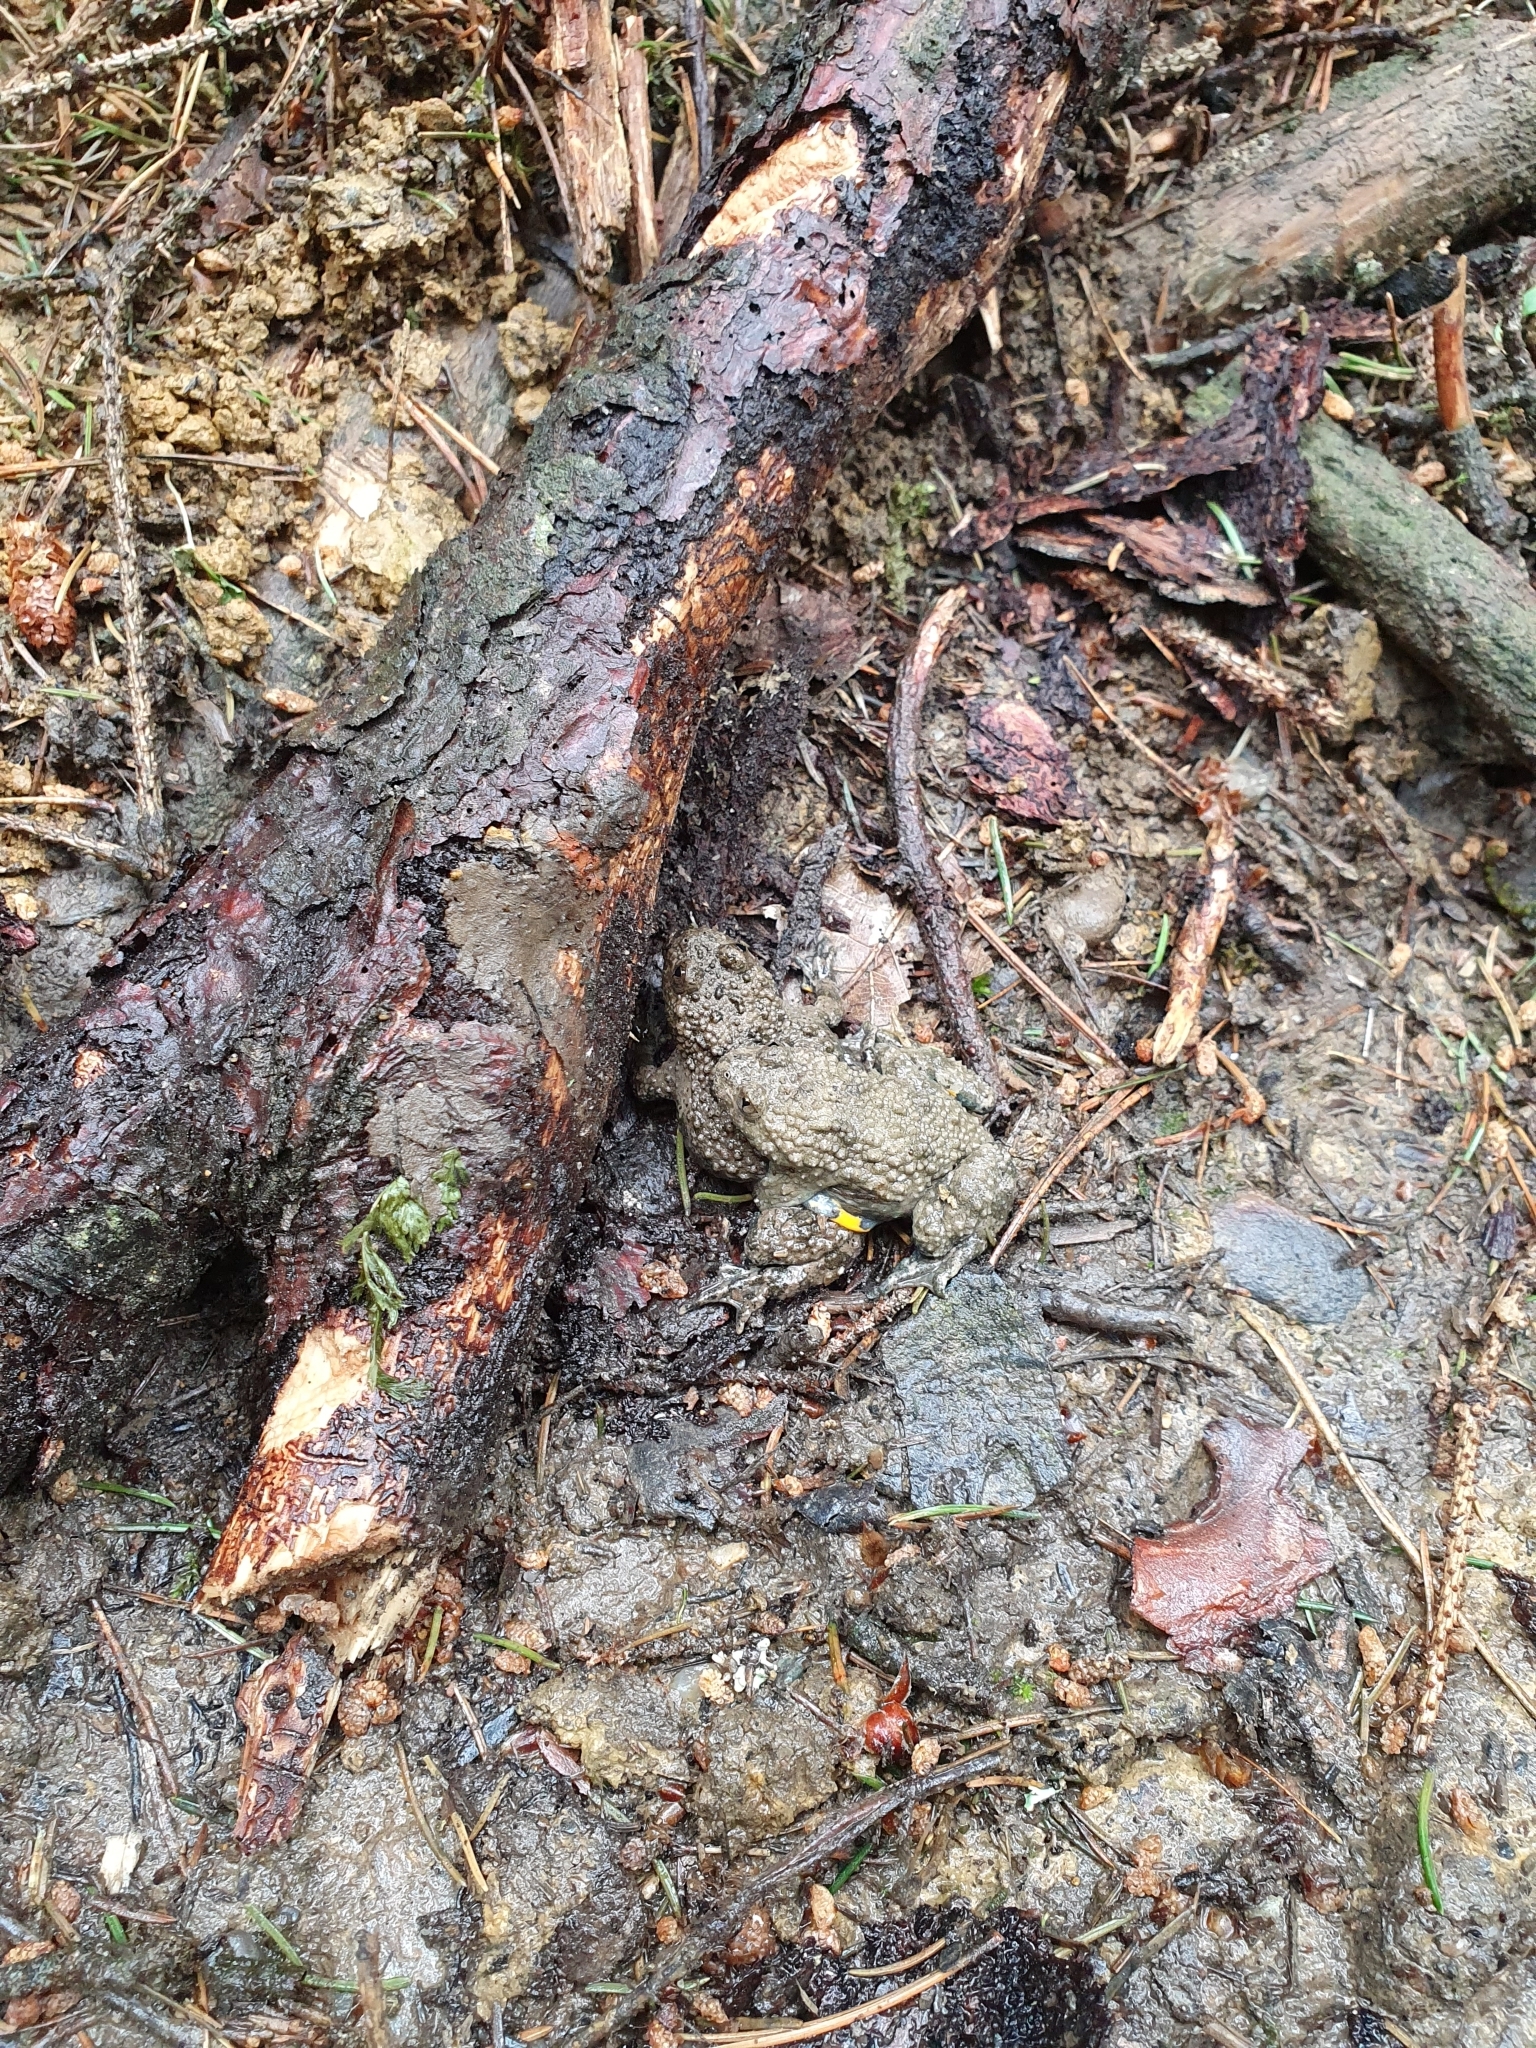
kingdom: Animalia
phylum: Chordata
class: Amphibia
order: Anura
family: Bombinatoridae
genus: Bombina
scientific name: Bombina variegata
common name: Yellow-bellied toad
